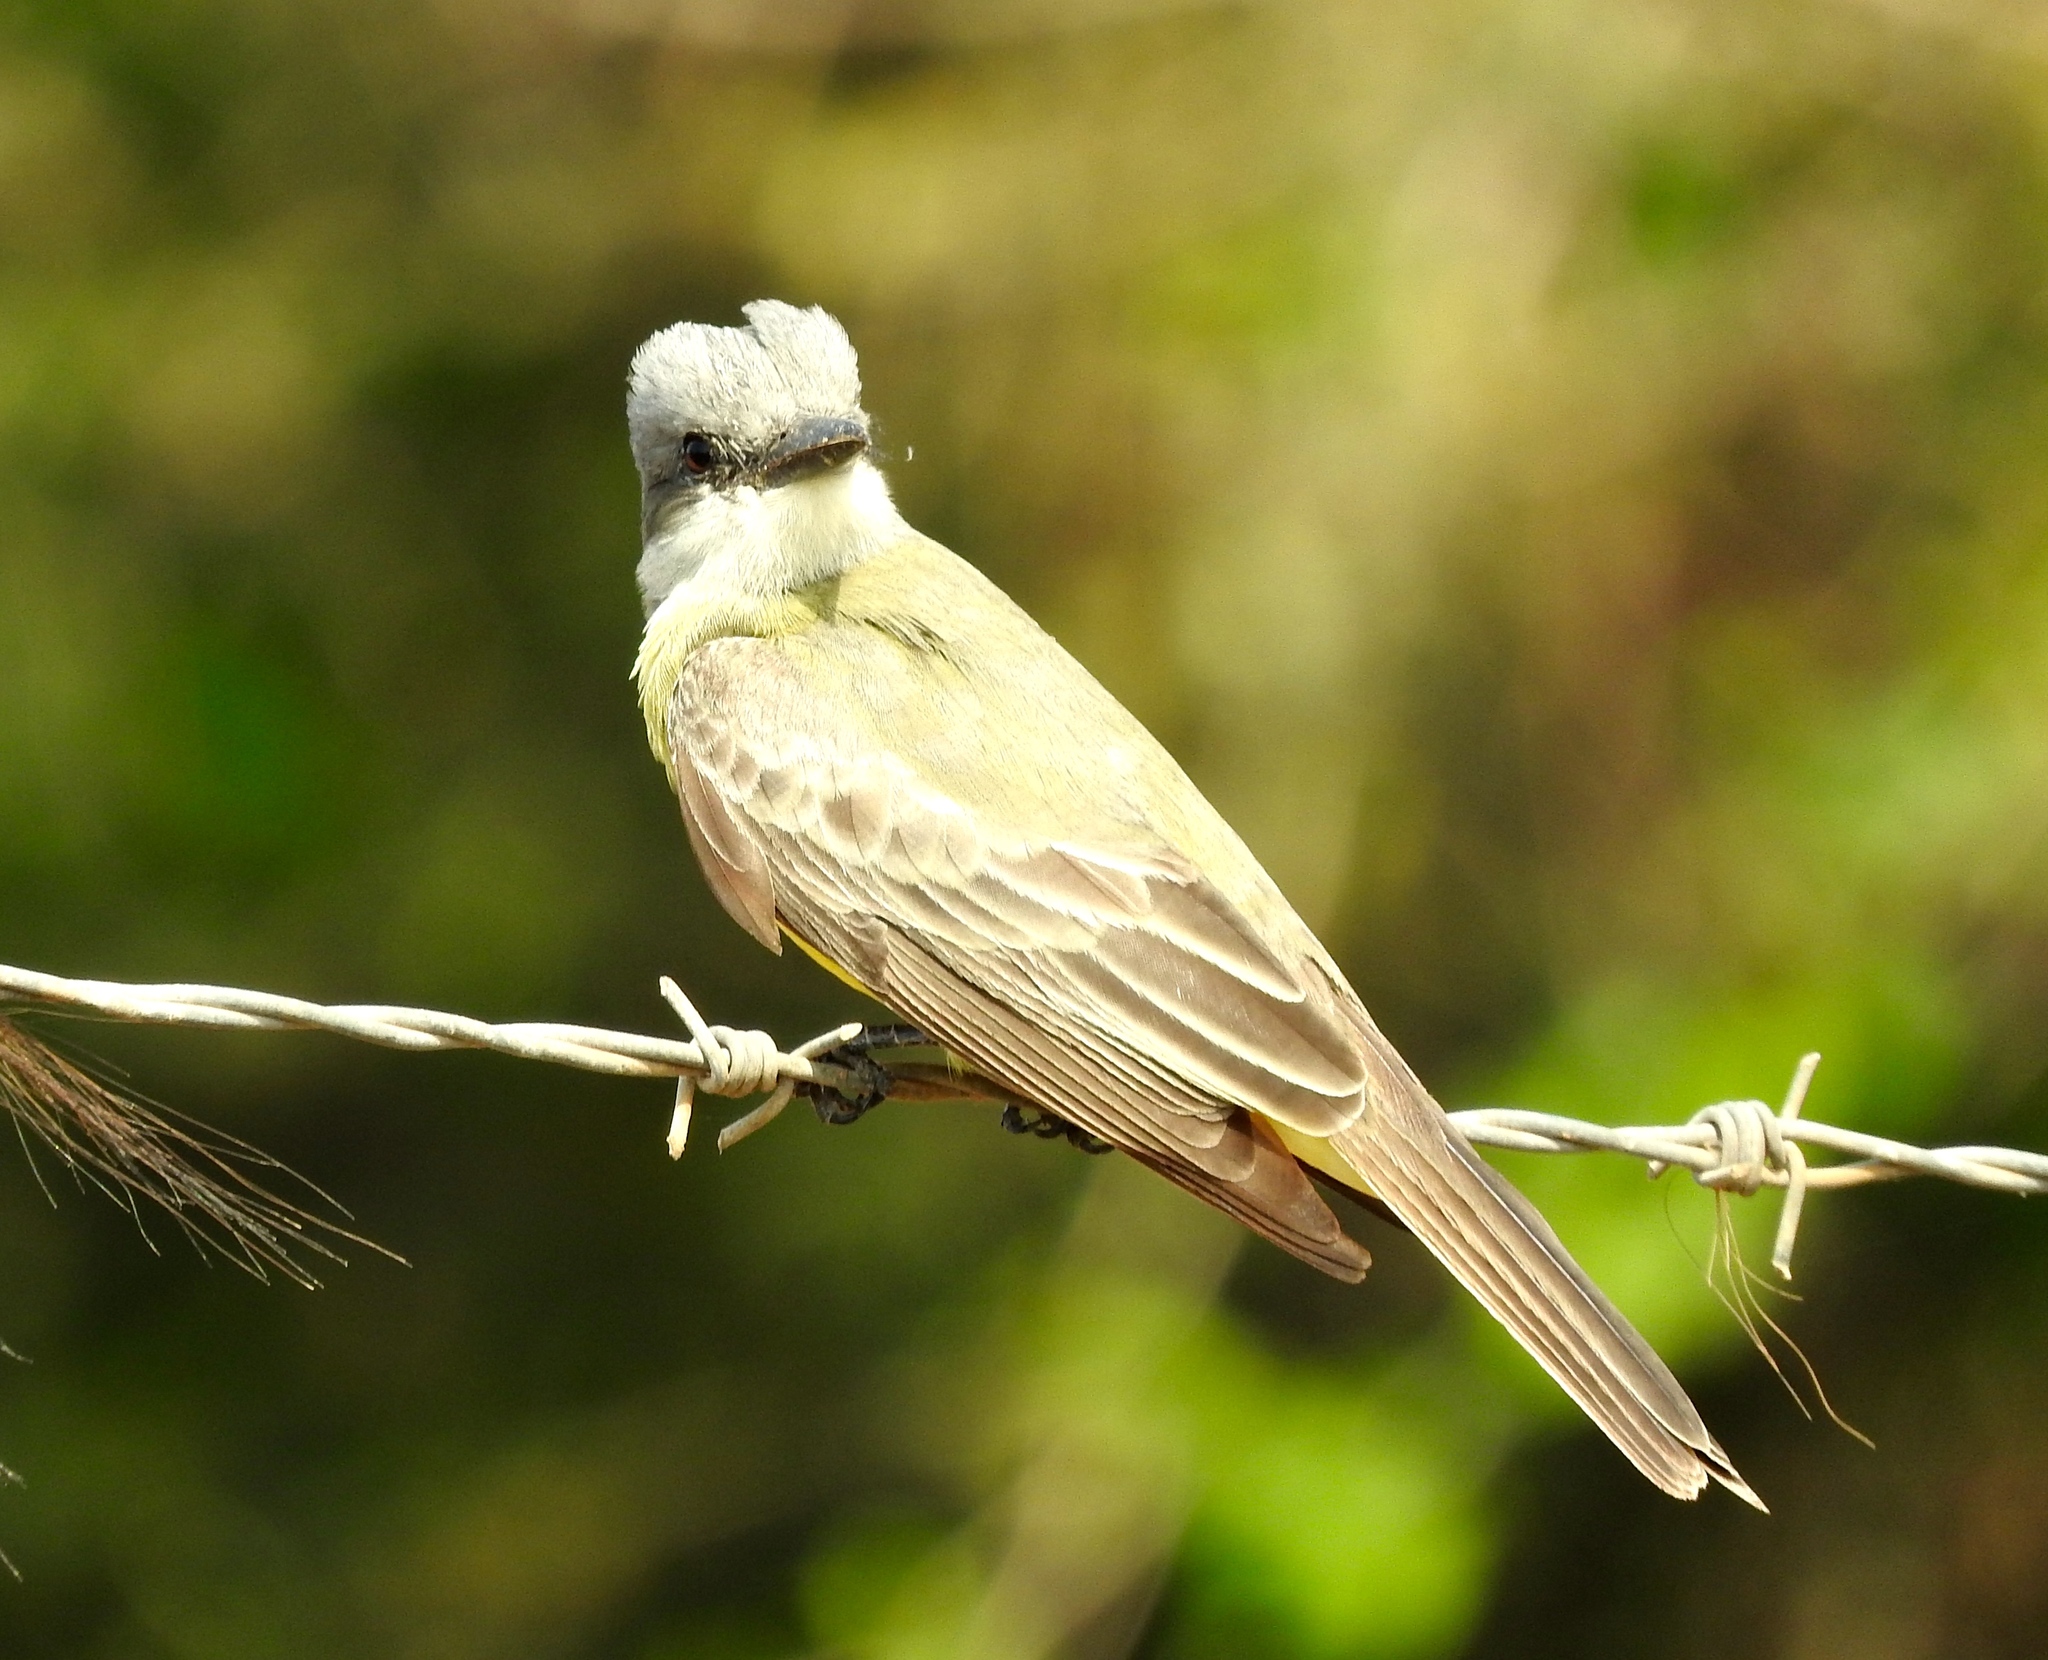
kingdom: Animalia
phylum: Chordata
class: Aves
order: Passeriformes
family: Tyrannidae
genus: Tyrannus
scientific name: Tyrannus melancholicus
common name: Tropical kingbird
